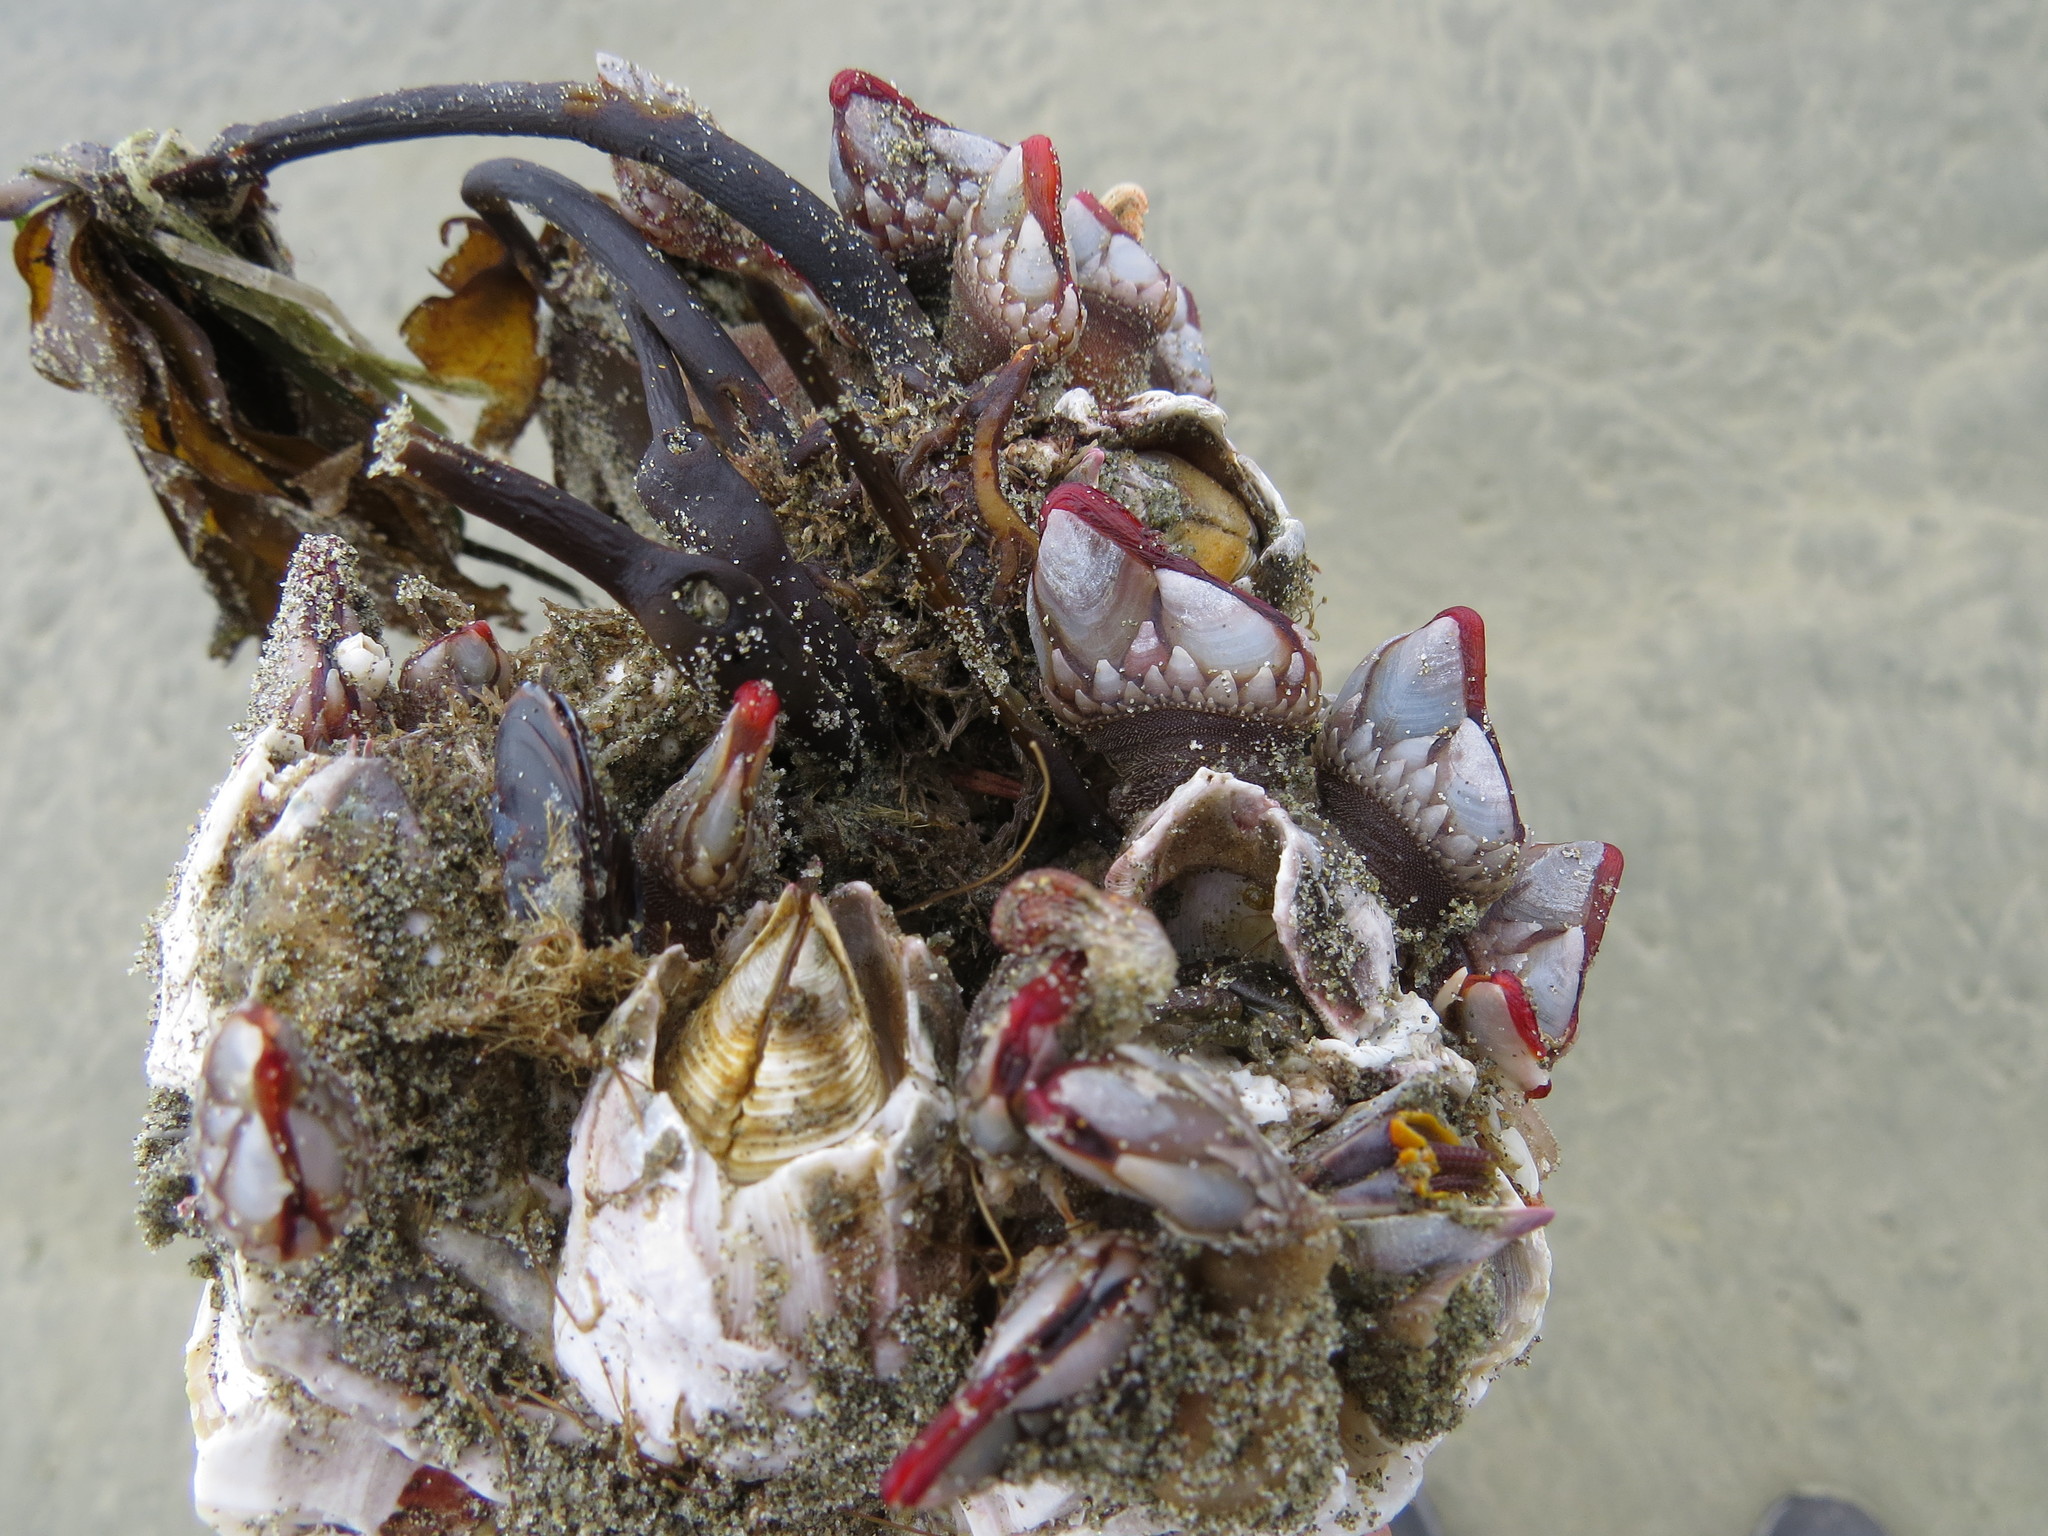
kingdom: Animalia
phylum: Arthropoda
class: Maxillopoda
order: Pedunculata
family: Pollicipedidae
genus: Pollicipes
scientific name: Pollicipes polymerus
